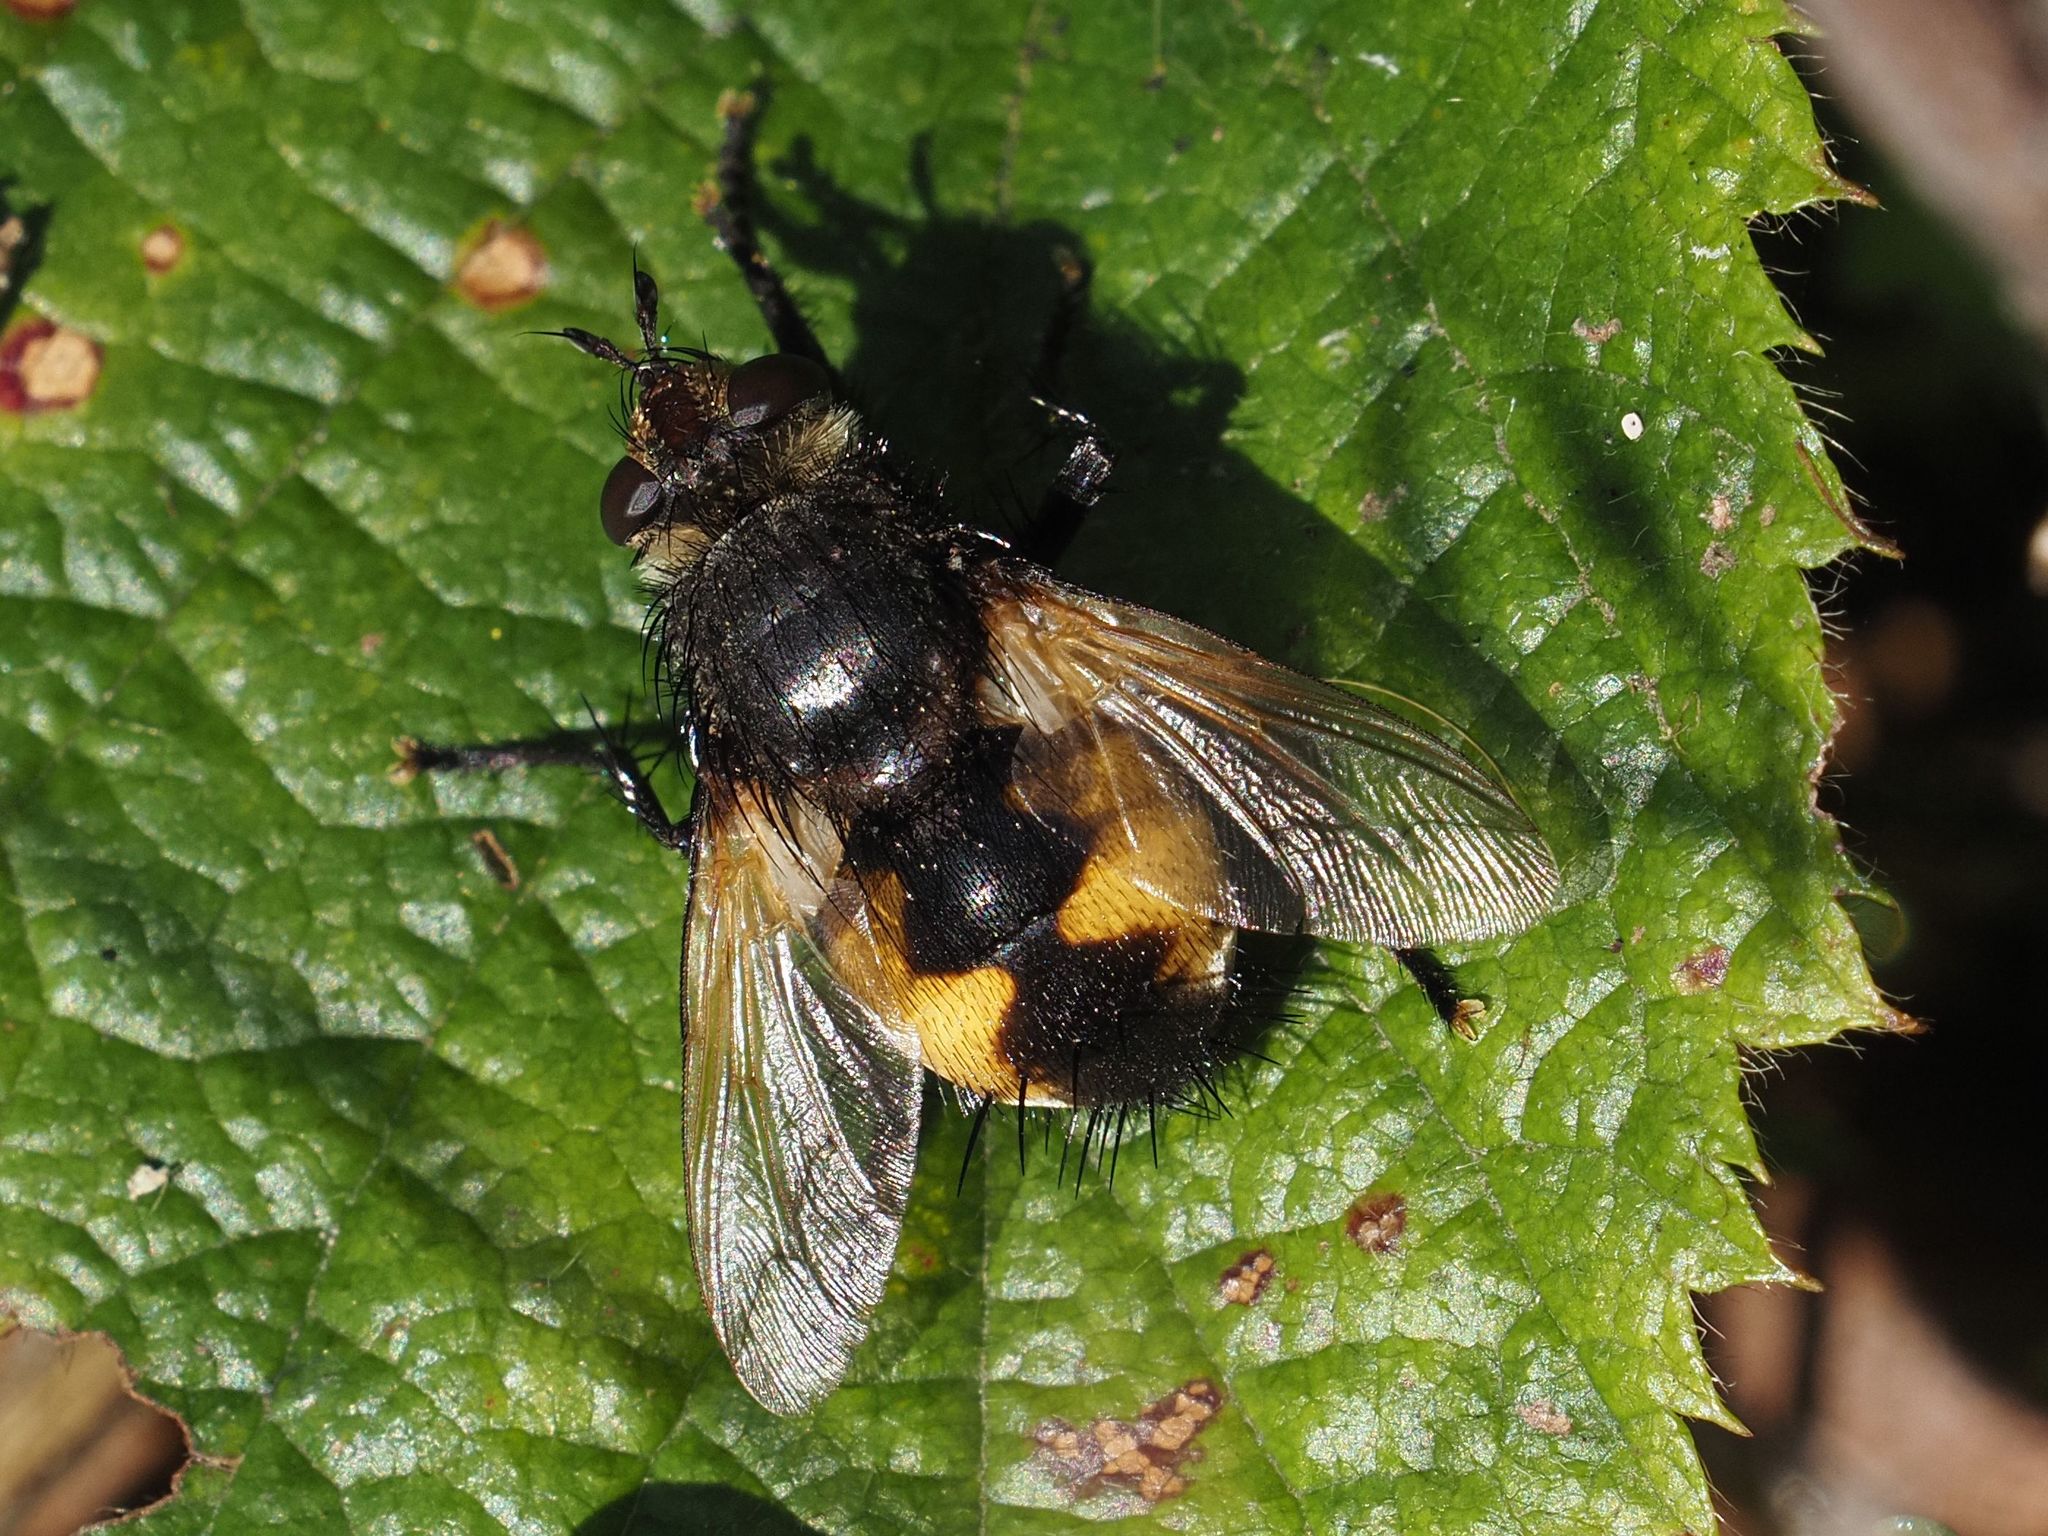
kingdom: Animalia
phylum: Arthropoda
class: Insecta
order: Diptera
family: Tachinidae
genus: Nowickia
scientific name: Nowickia ferox
